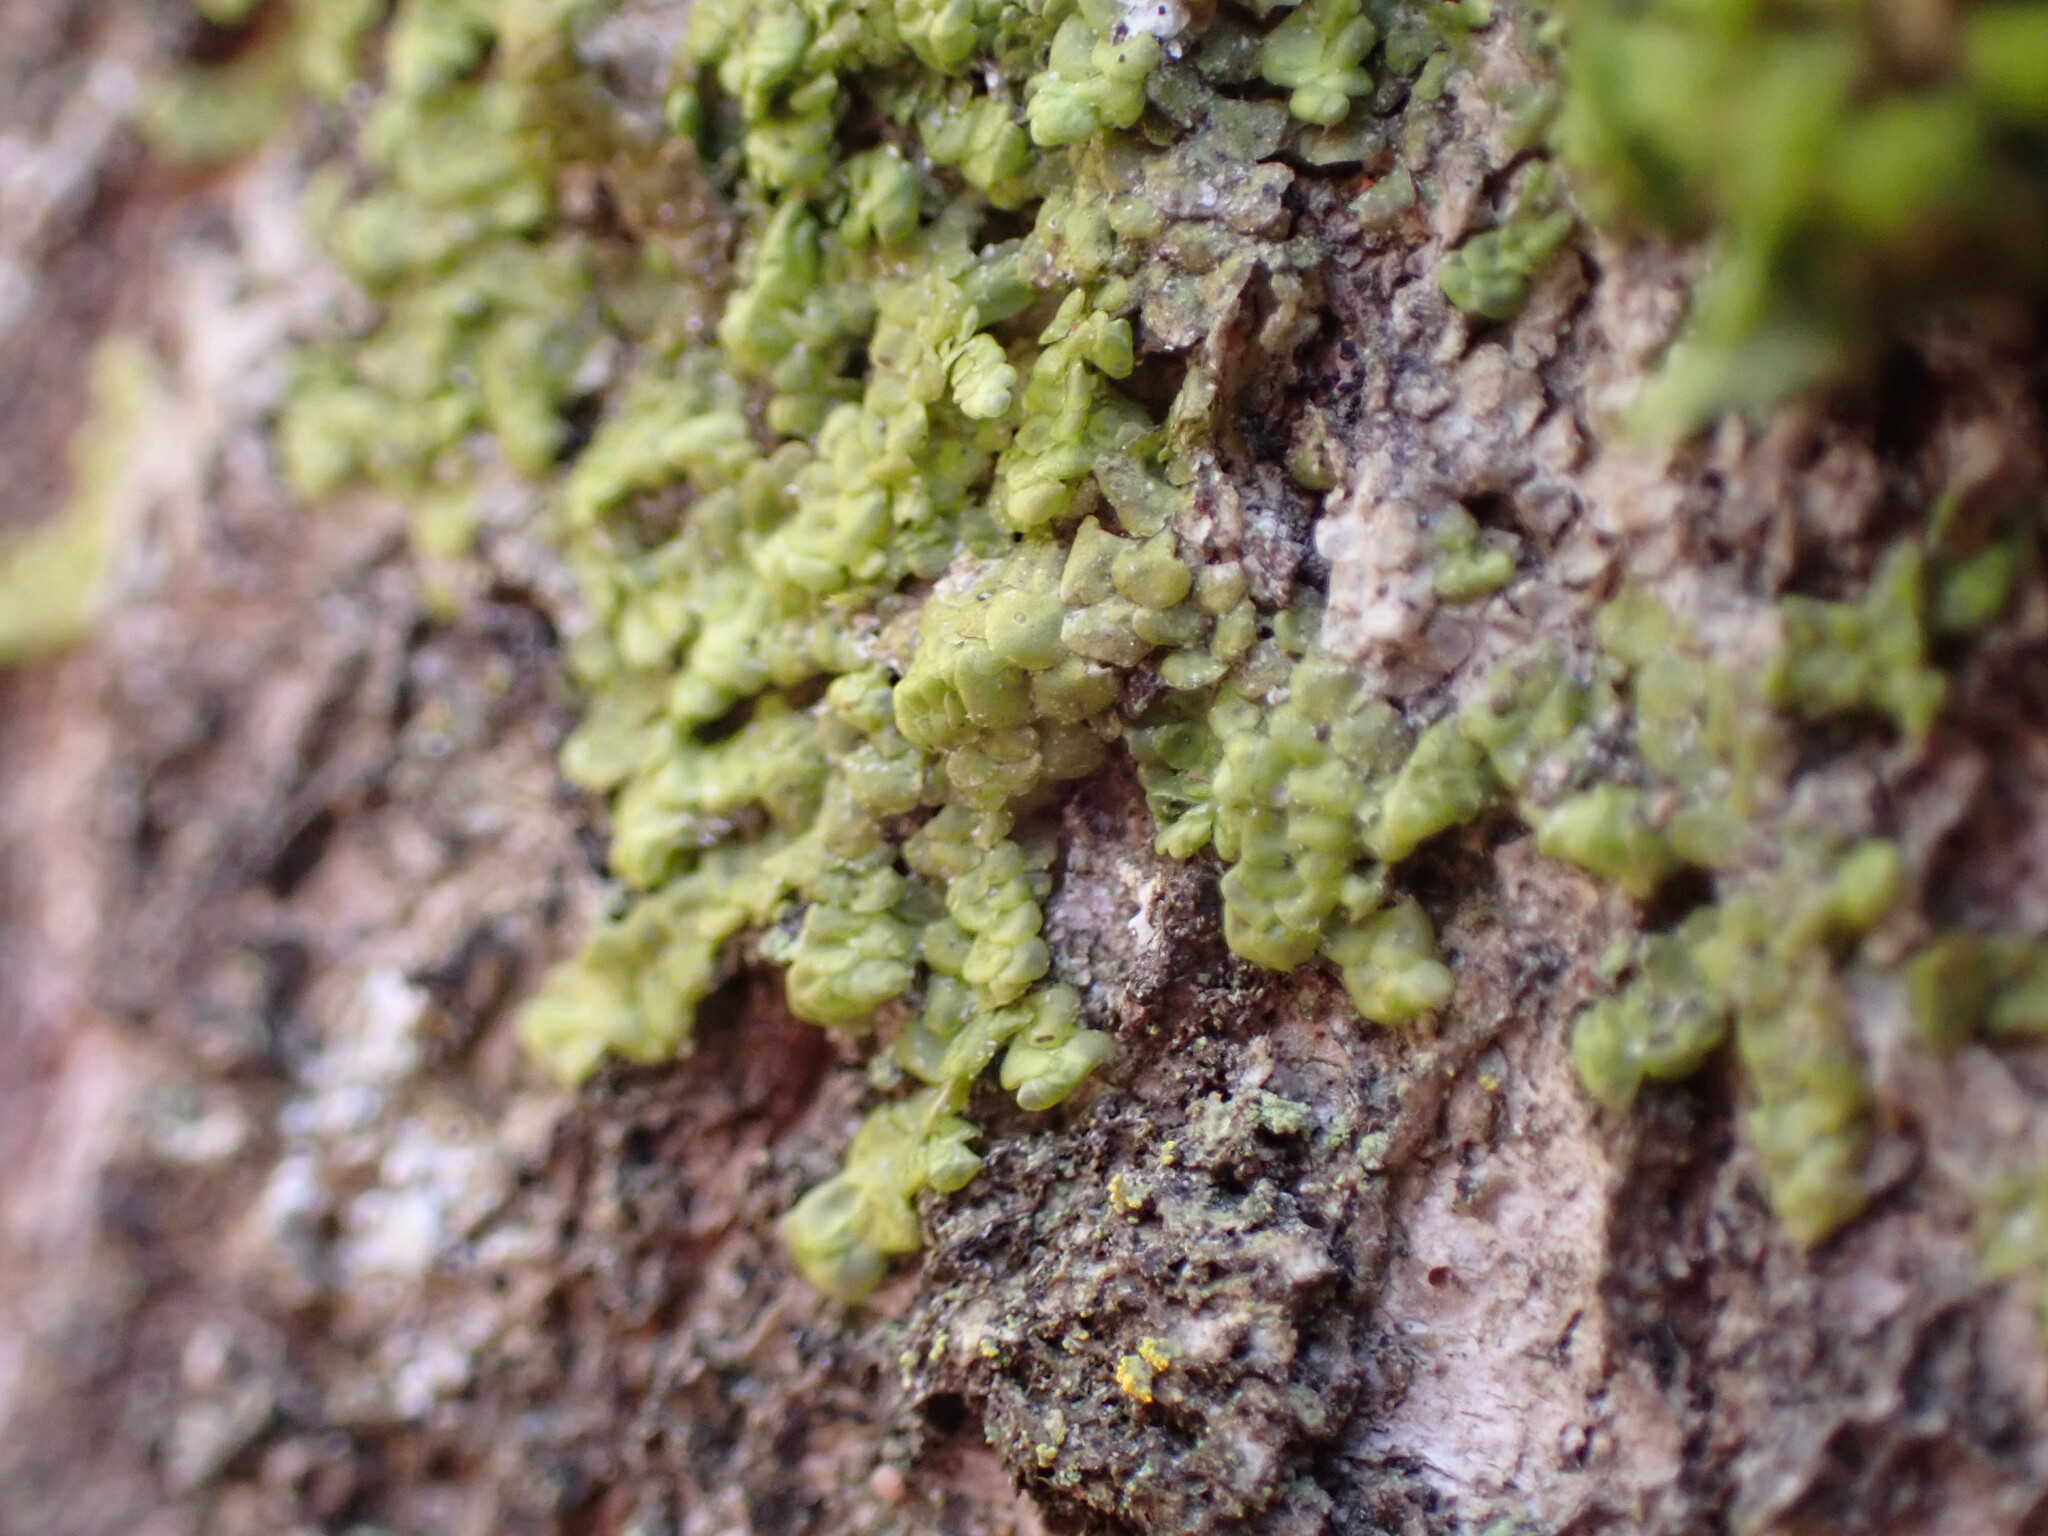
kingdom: Plantae
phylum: Marchantiophyta
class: Jungermanniopsida
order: Porellales
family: Radulaceae
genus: Radula
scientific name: Radula complanata
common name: Flat-leaved scalewort
